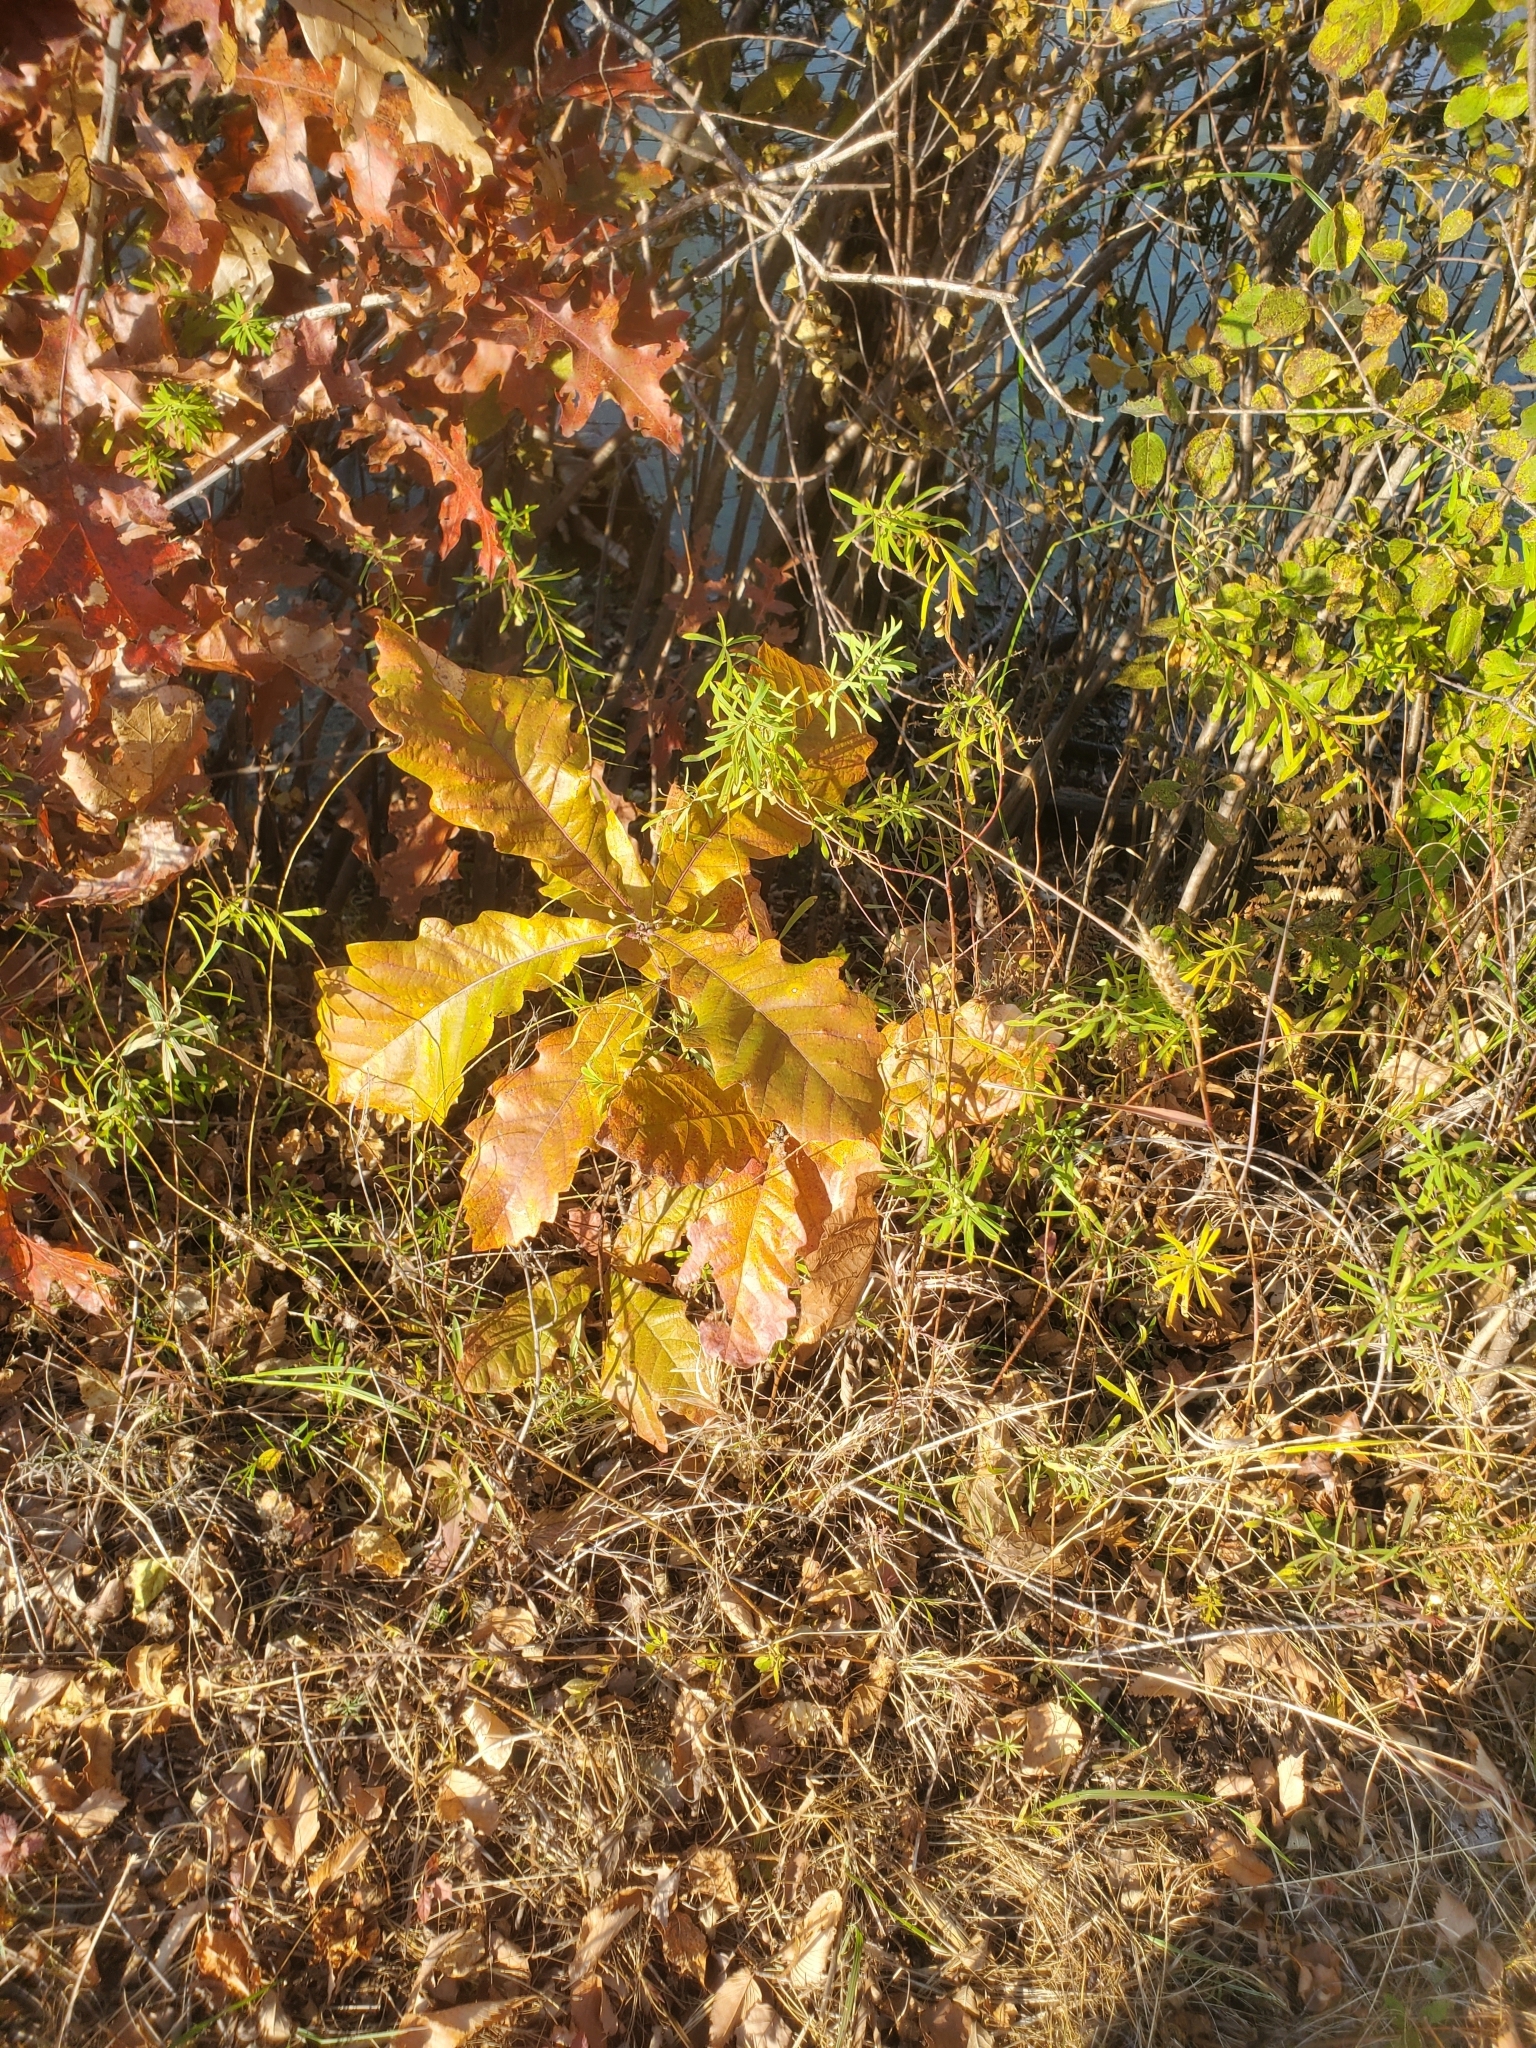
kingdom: Plantae
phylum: Tracheophyta
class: Magnoliopsida
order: Fagales
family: Fagaceae
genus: Quercus
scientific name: Quercus bicolor
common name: Swamp white oak
